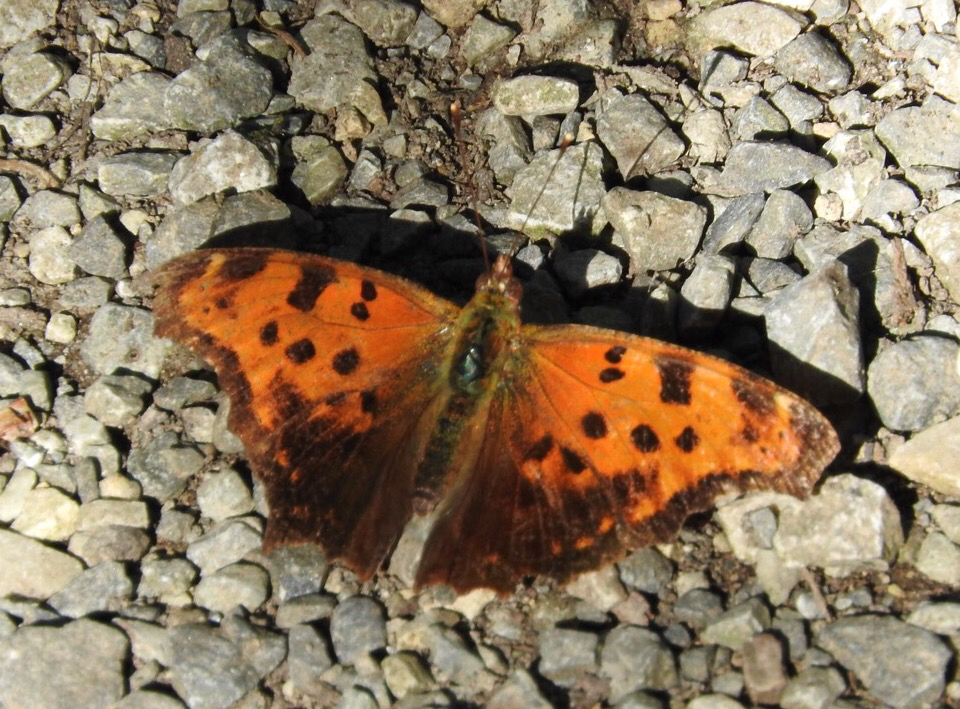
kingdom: Animalia
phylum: Arthropoda
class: Insecta
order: Lepidoptera
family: Nymphalidae
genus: Polygonia
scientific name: Polygonia comma
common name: Eastern comma
